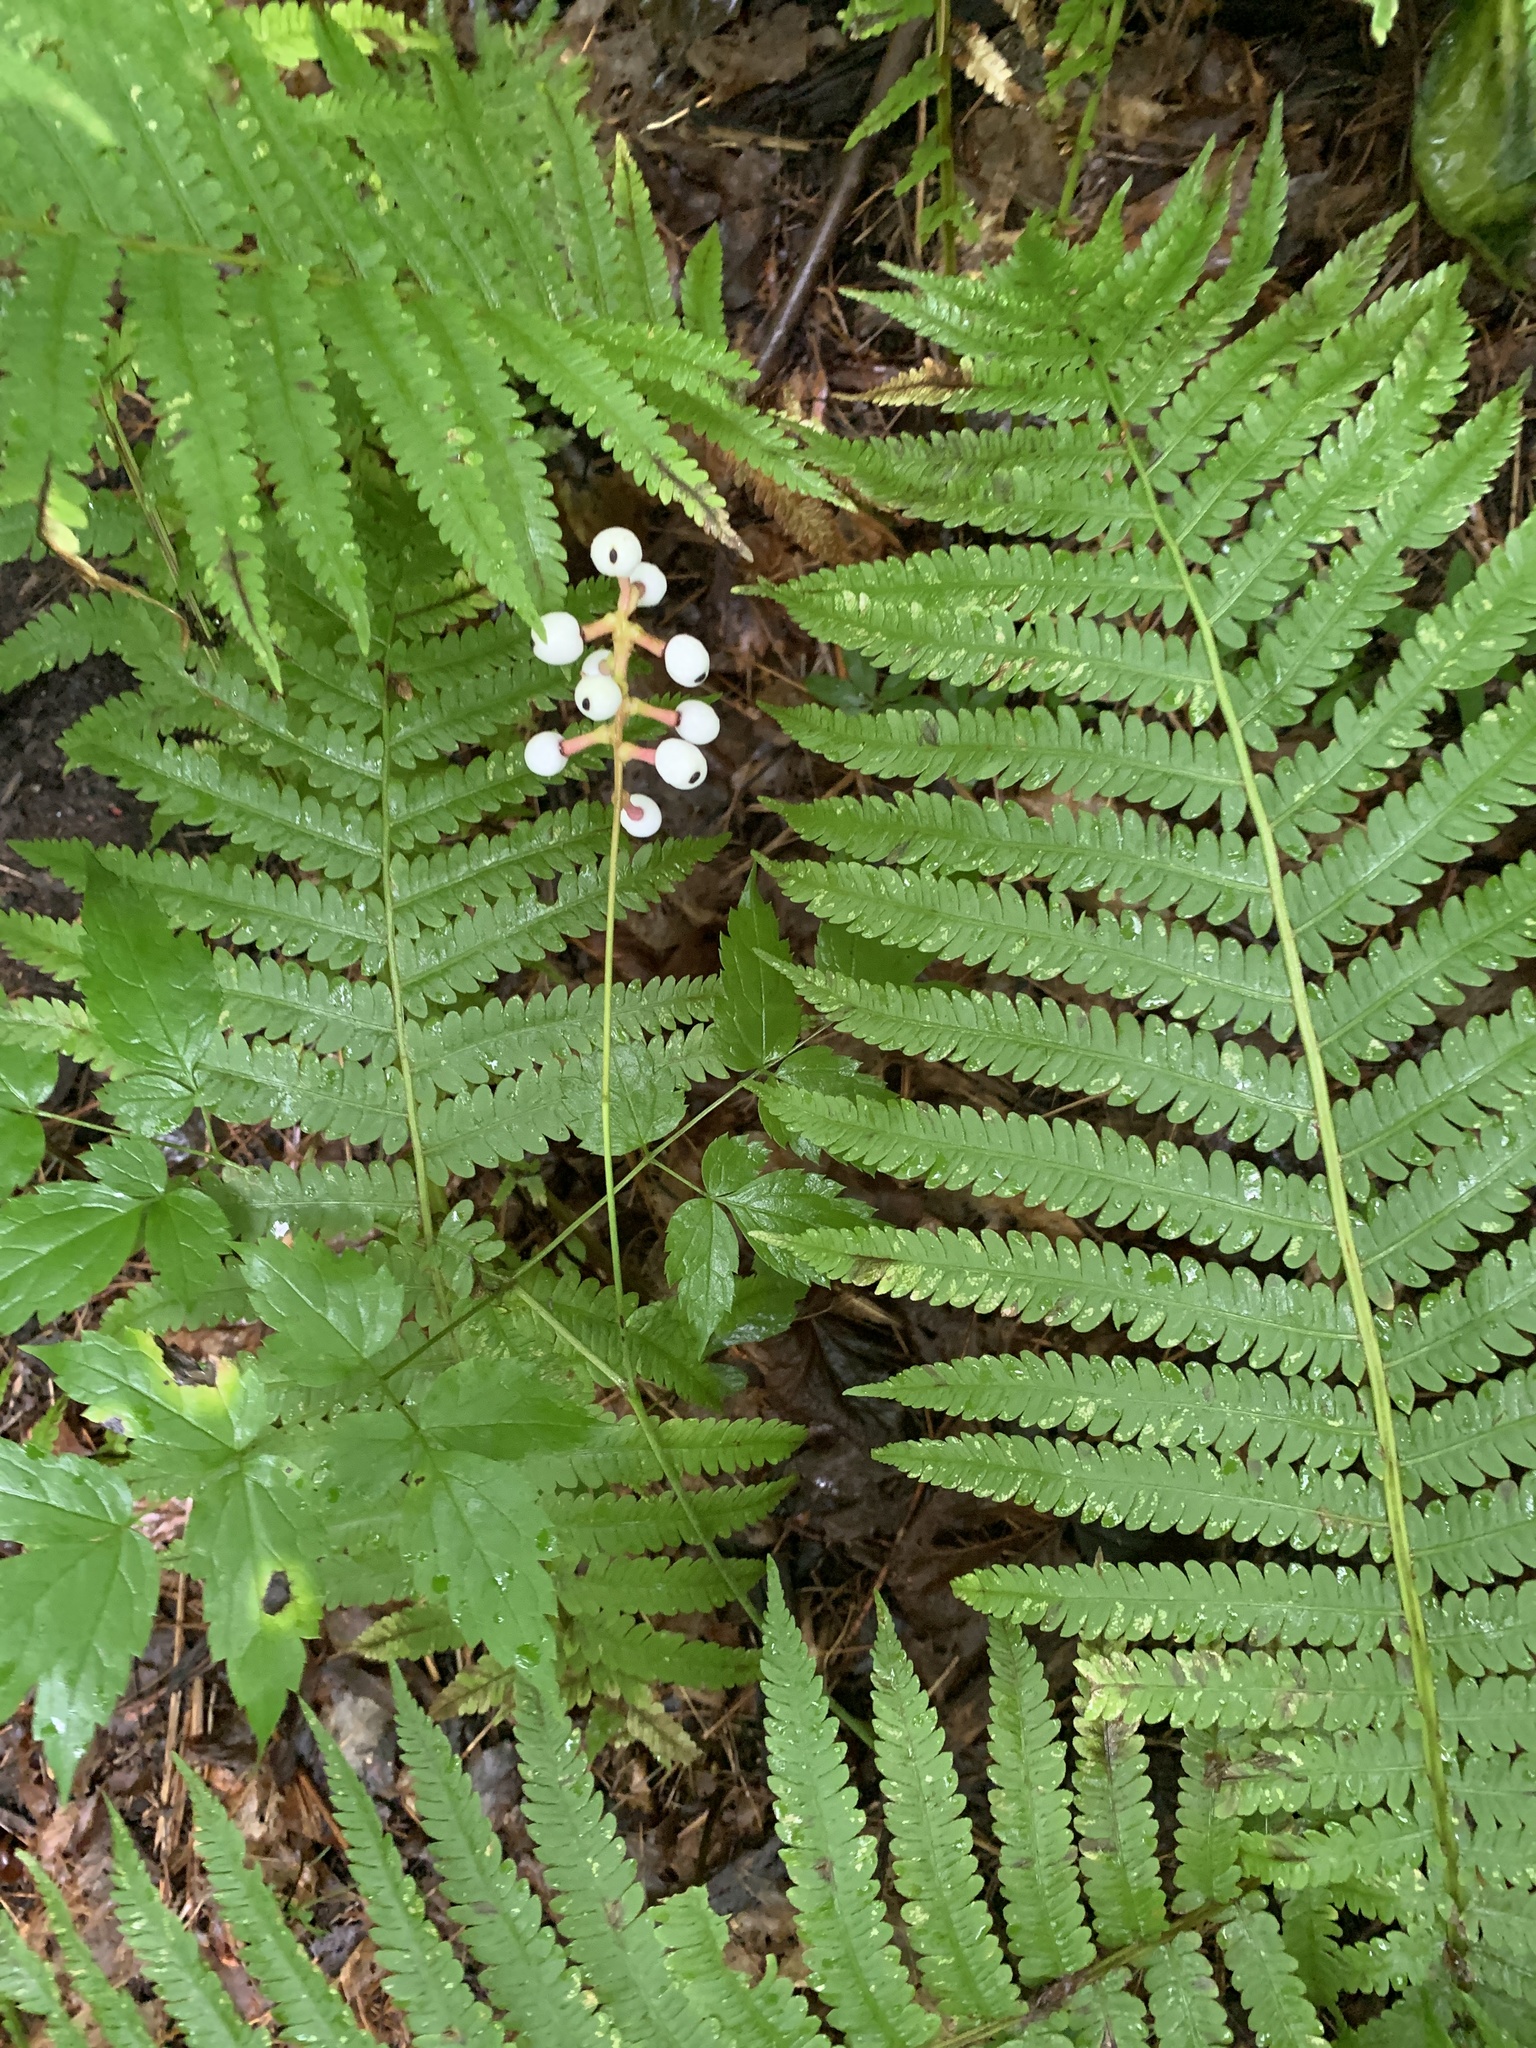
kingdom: Plantae
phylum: Tracheophyta
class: Magnoliopsida
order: Ranunculales
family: Ranunculaceae
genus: Actaea
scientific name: Actaea pachypoda
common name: Doll's-eyes
